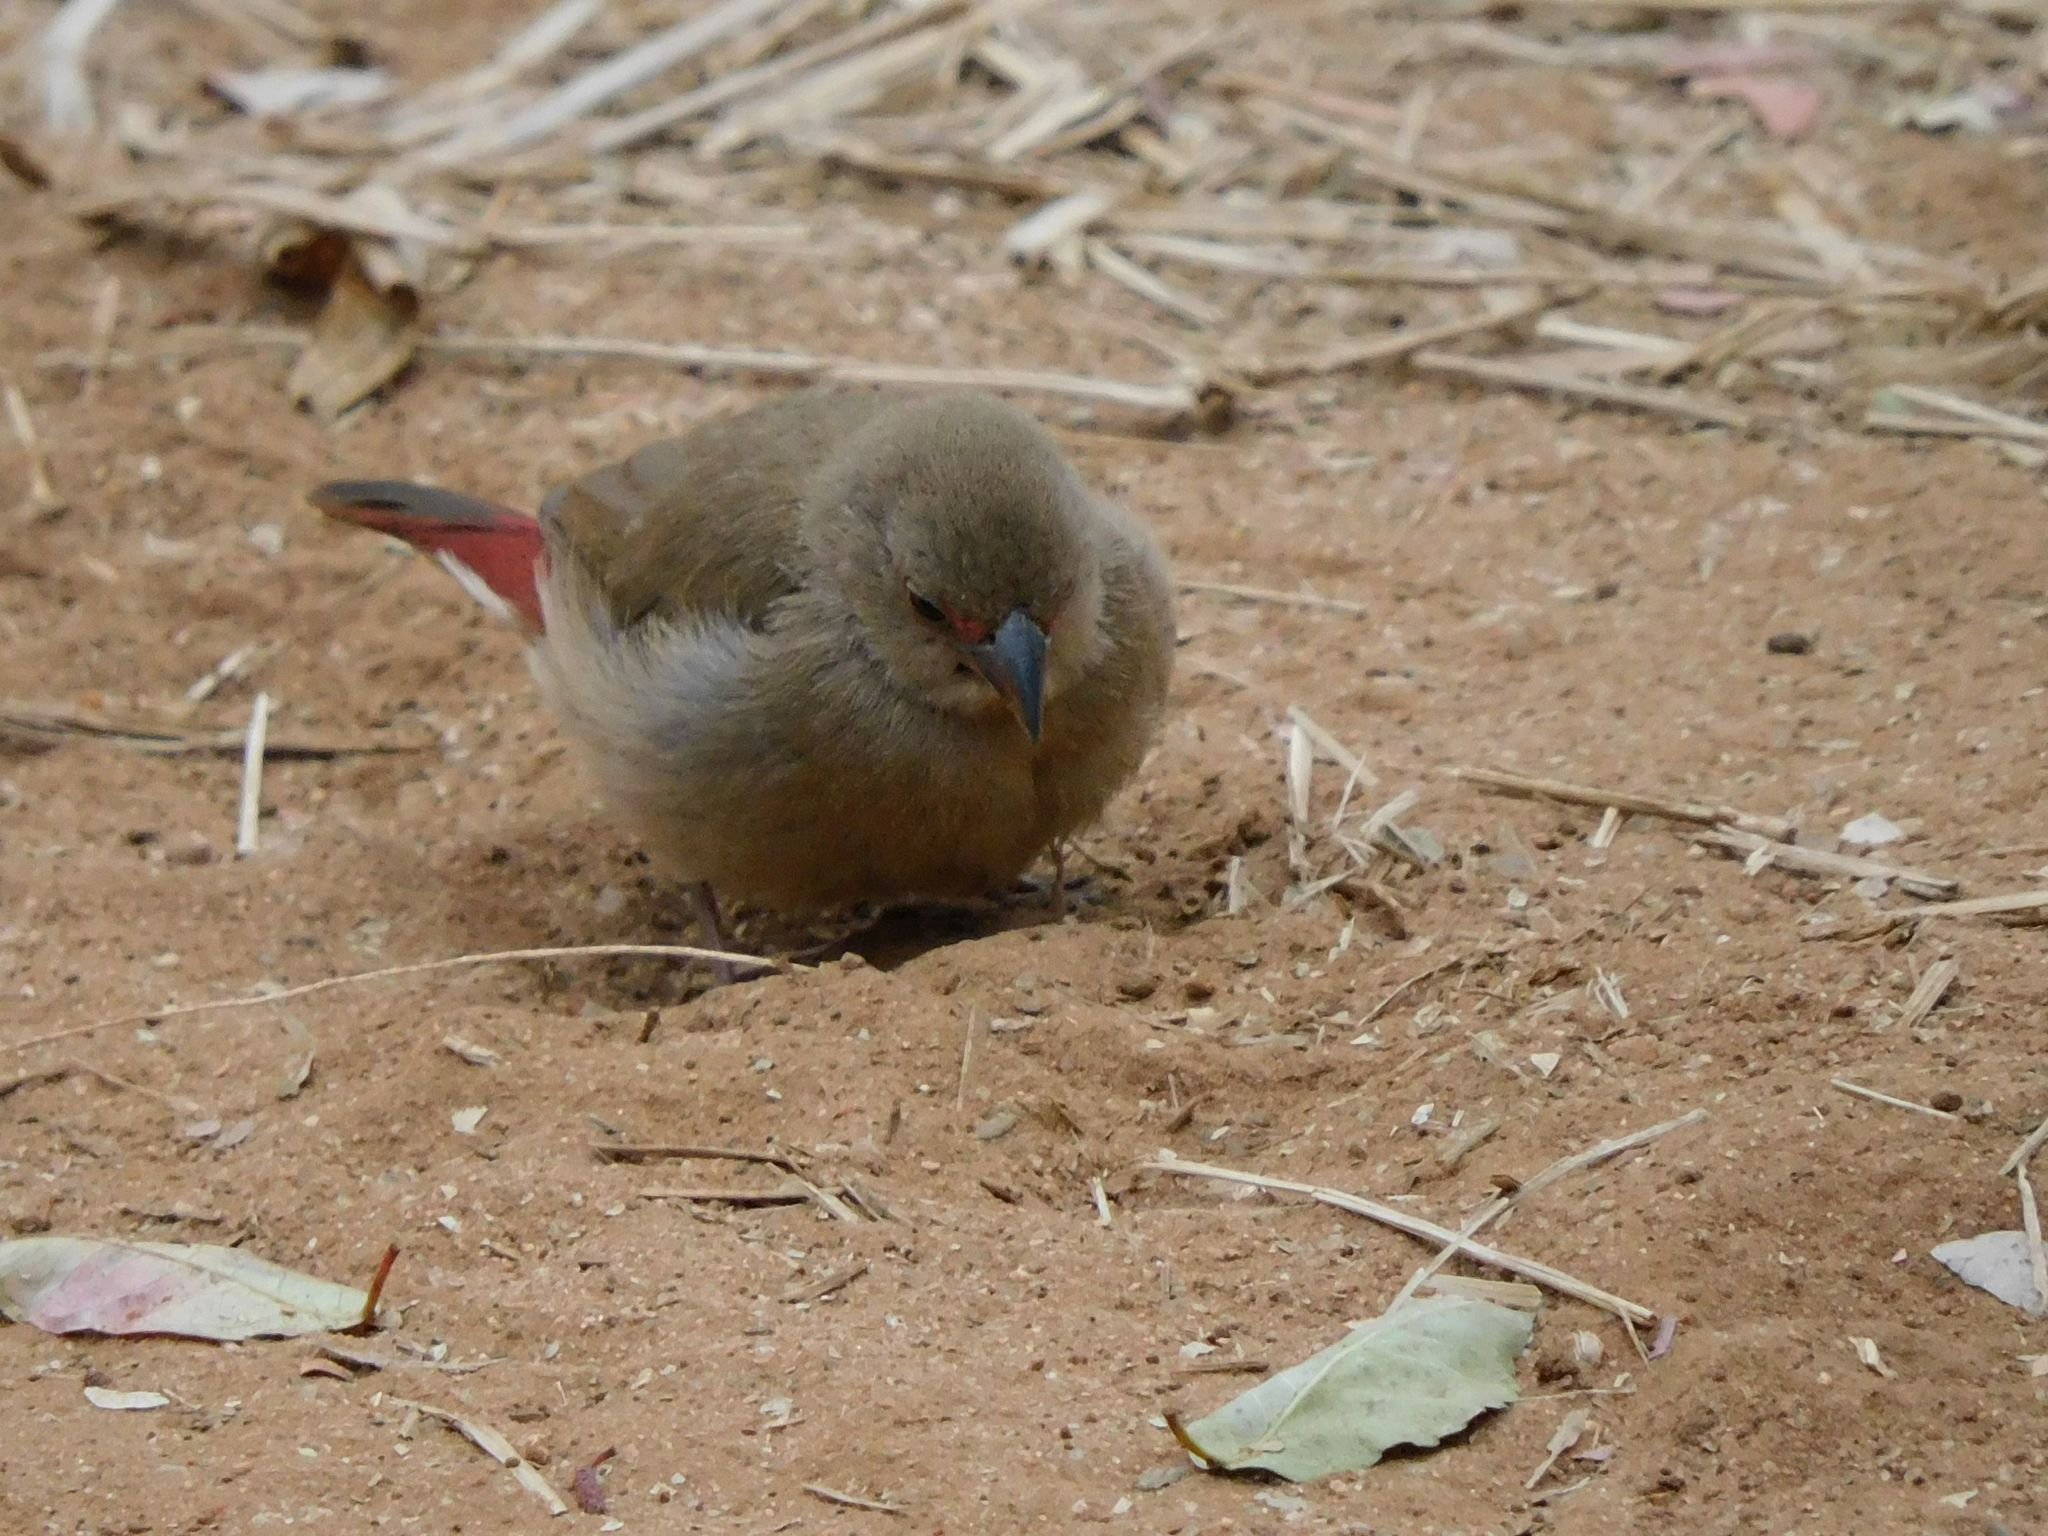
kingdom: Animalia
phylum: Chordata
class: Aves
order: Passeriformes
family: Estrildidae
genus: Lagonosticta
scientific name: Lagonosticta senegala
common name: Red-billed firefinch
